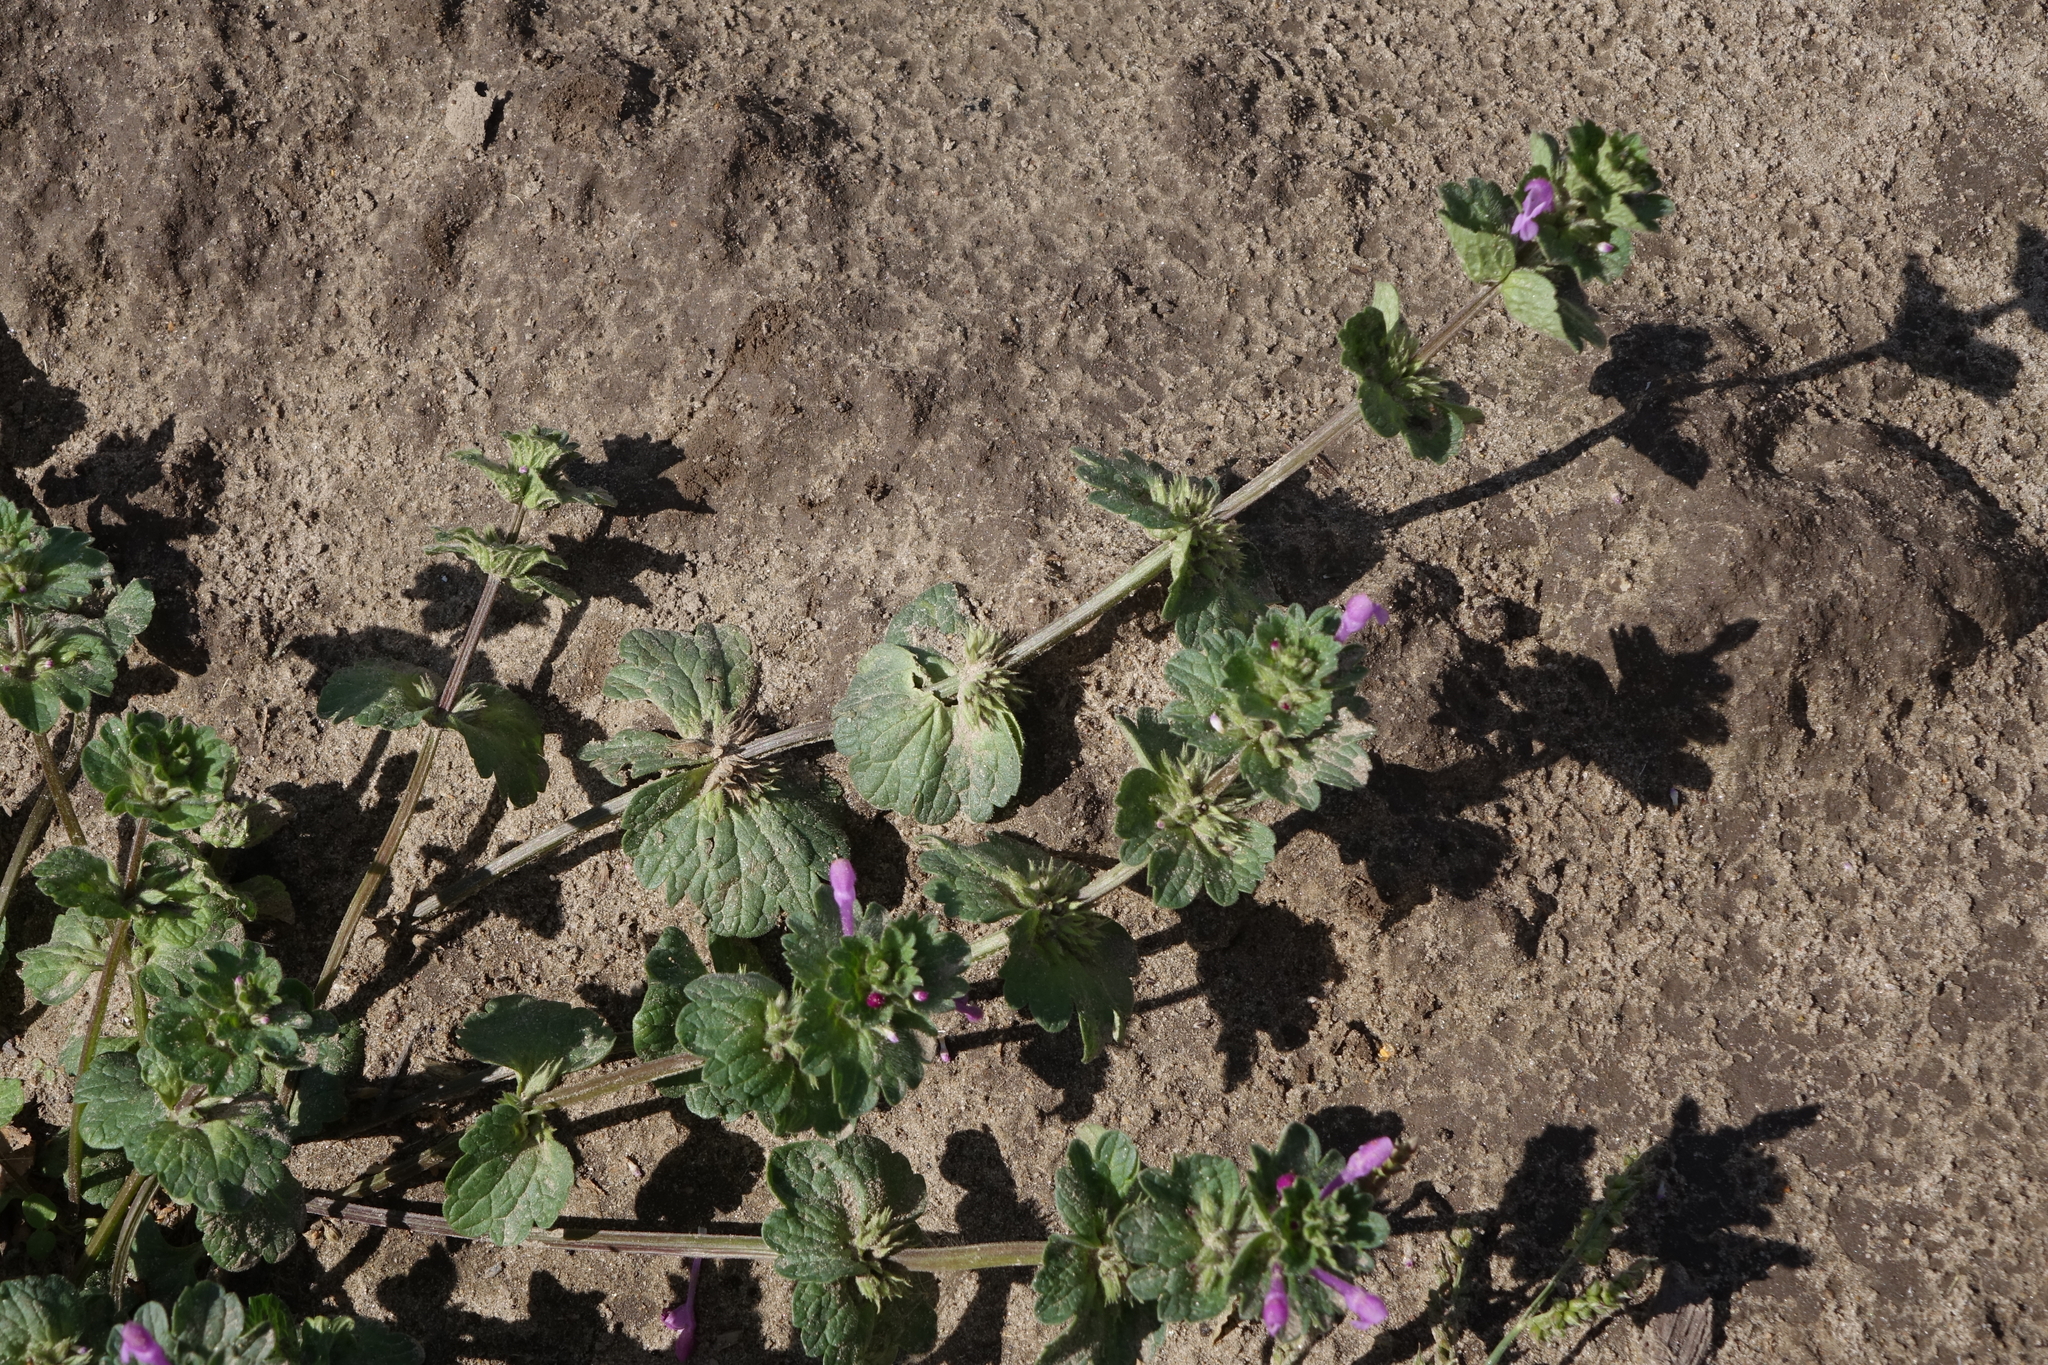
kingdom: Plantae
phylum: Tracheophyta
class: Magnoliopsida
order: Lamiales
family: Lamiaceae
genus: Lamium
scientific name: Lamium amplexicaule
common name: Henbit dead-nettle
